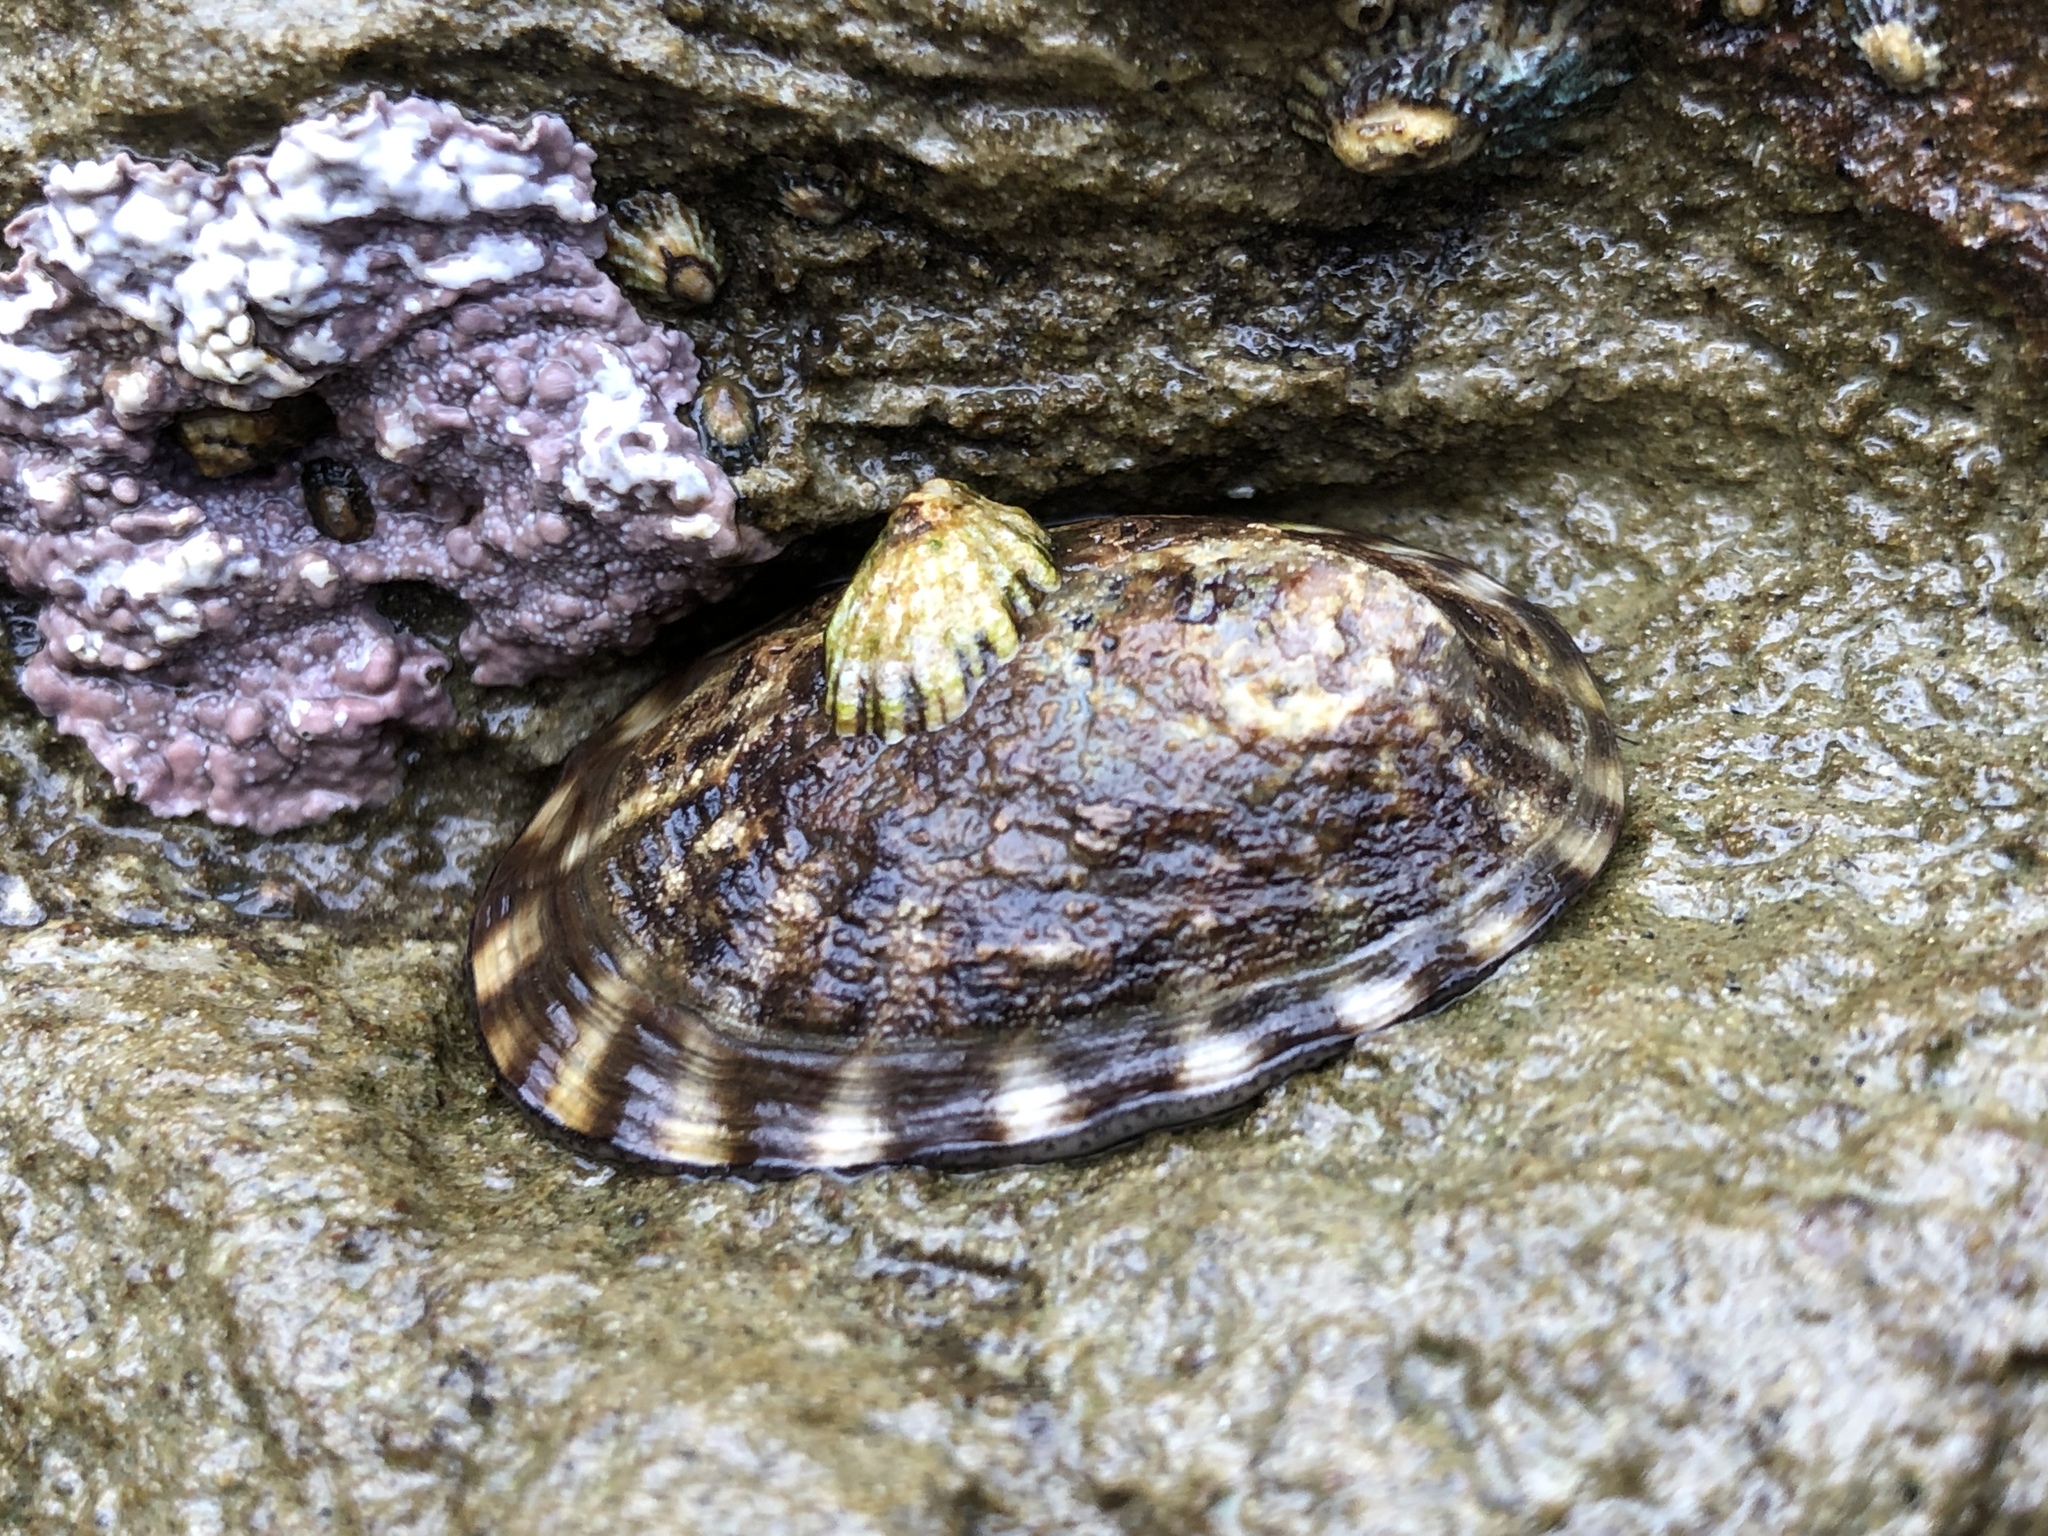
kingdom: Animalia
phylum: Mollusca
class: Gastropoda
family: Lottiidae
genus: Lottia
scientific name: Lottia gigantea
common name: Owl limpet
